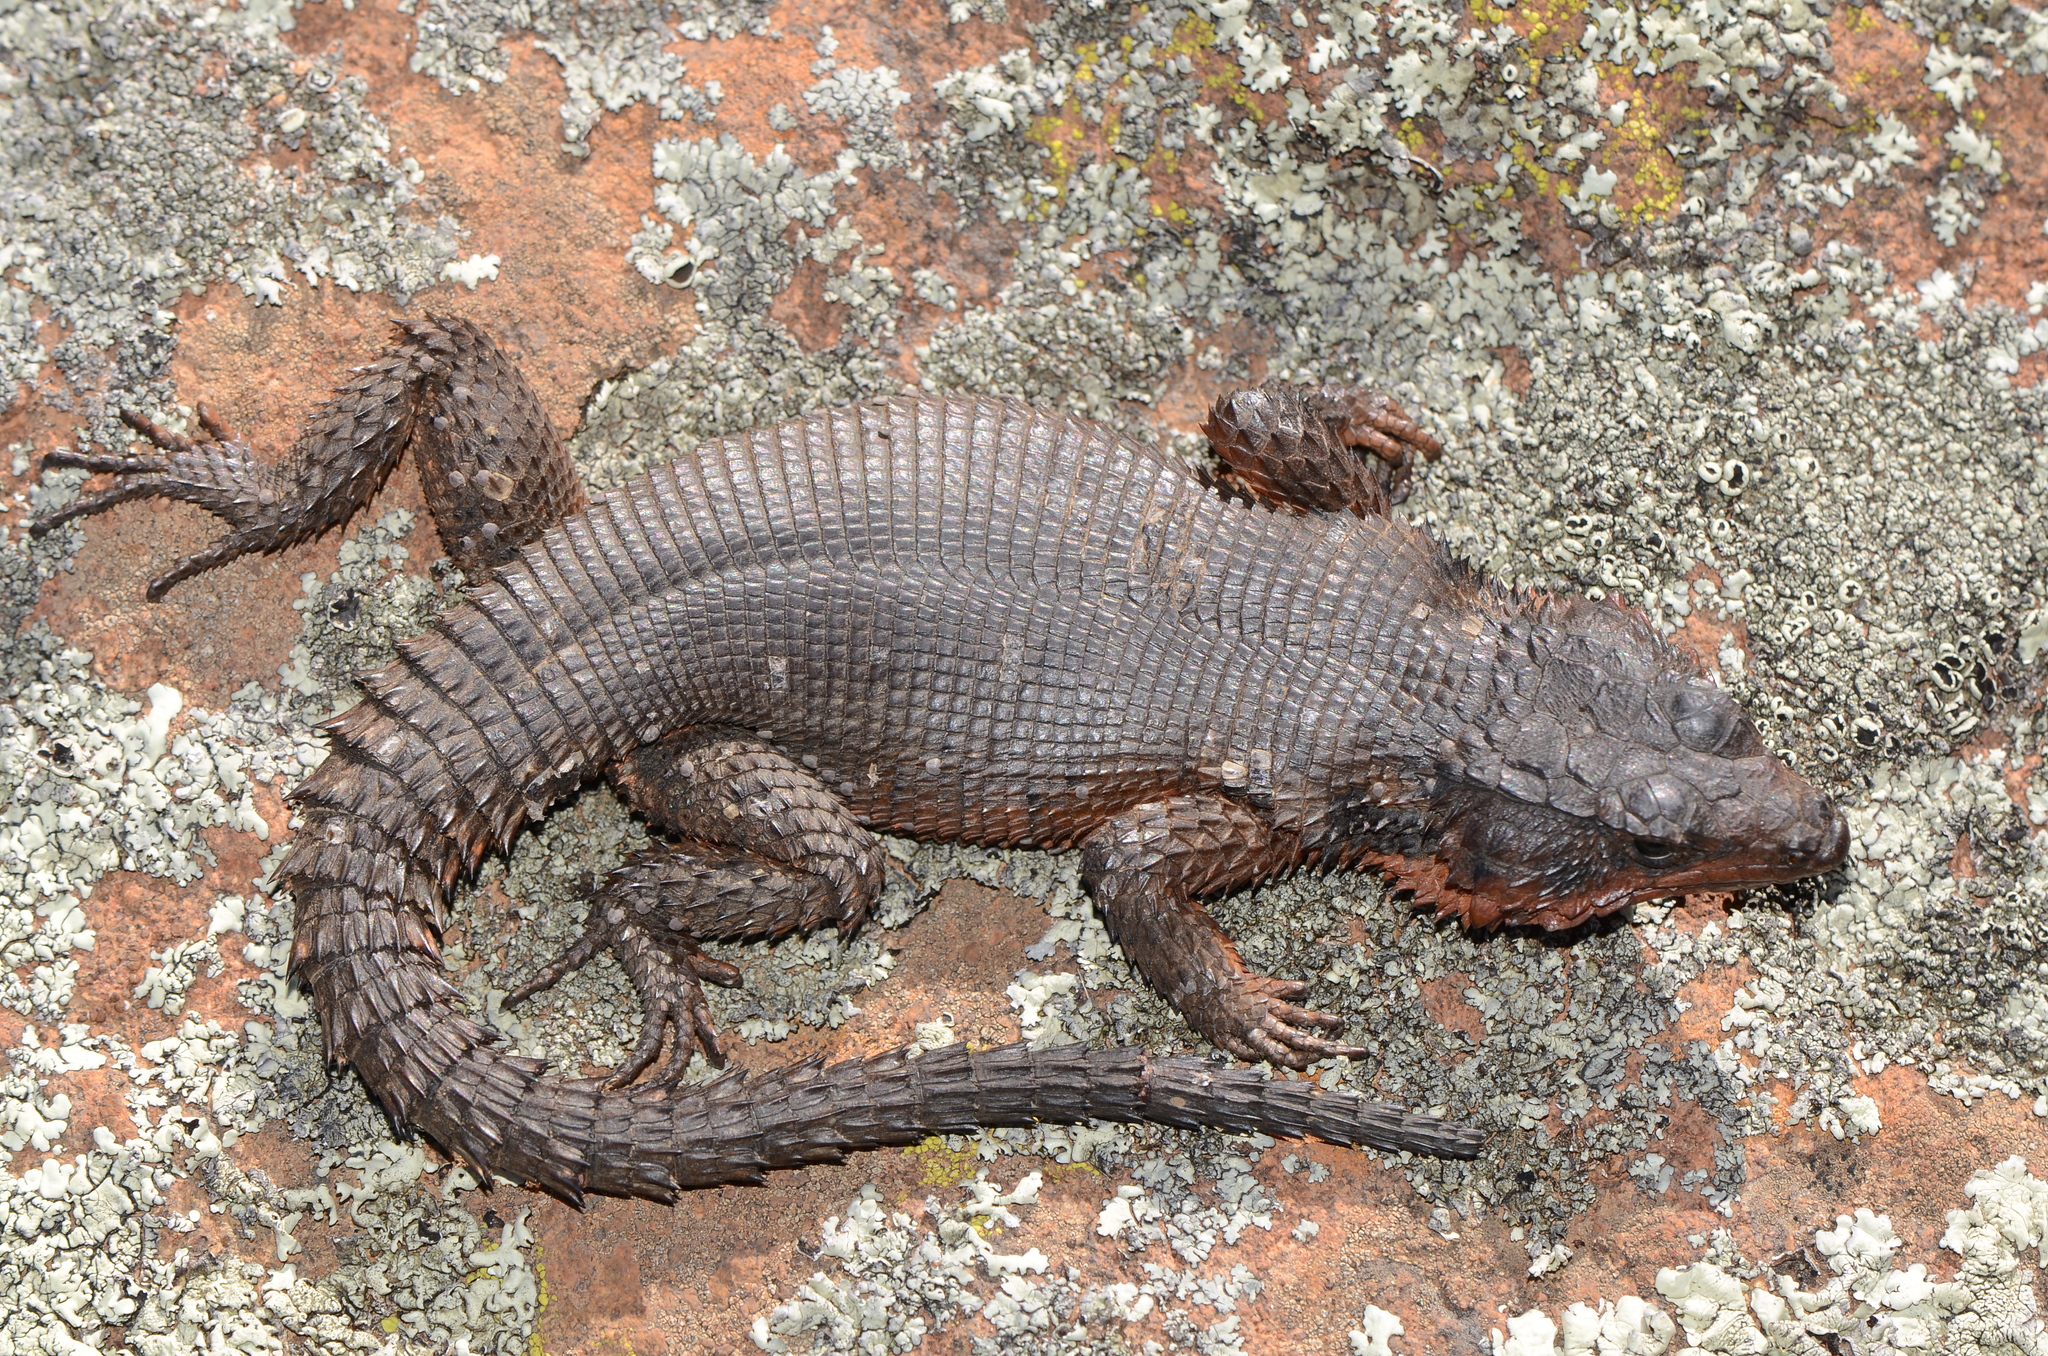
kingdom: Animalia
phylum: Chordata
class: Squamata
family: Cordylidae
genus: Karusasaurus
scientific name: Karusasaurus polyzonus
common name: Karoo girdled lizard
